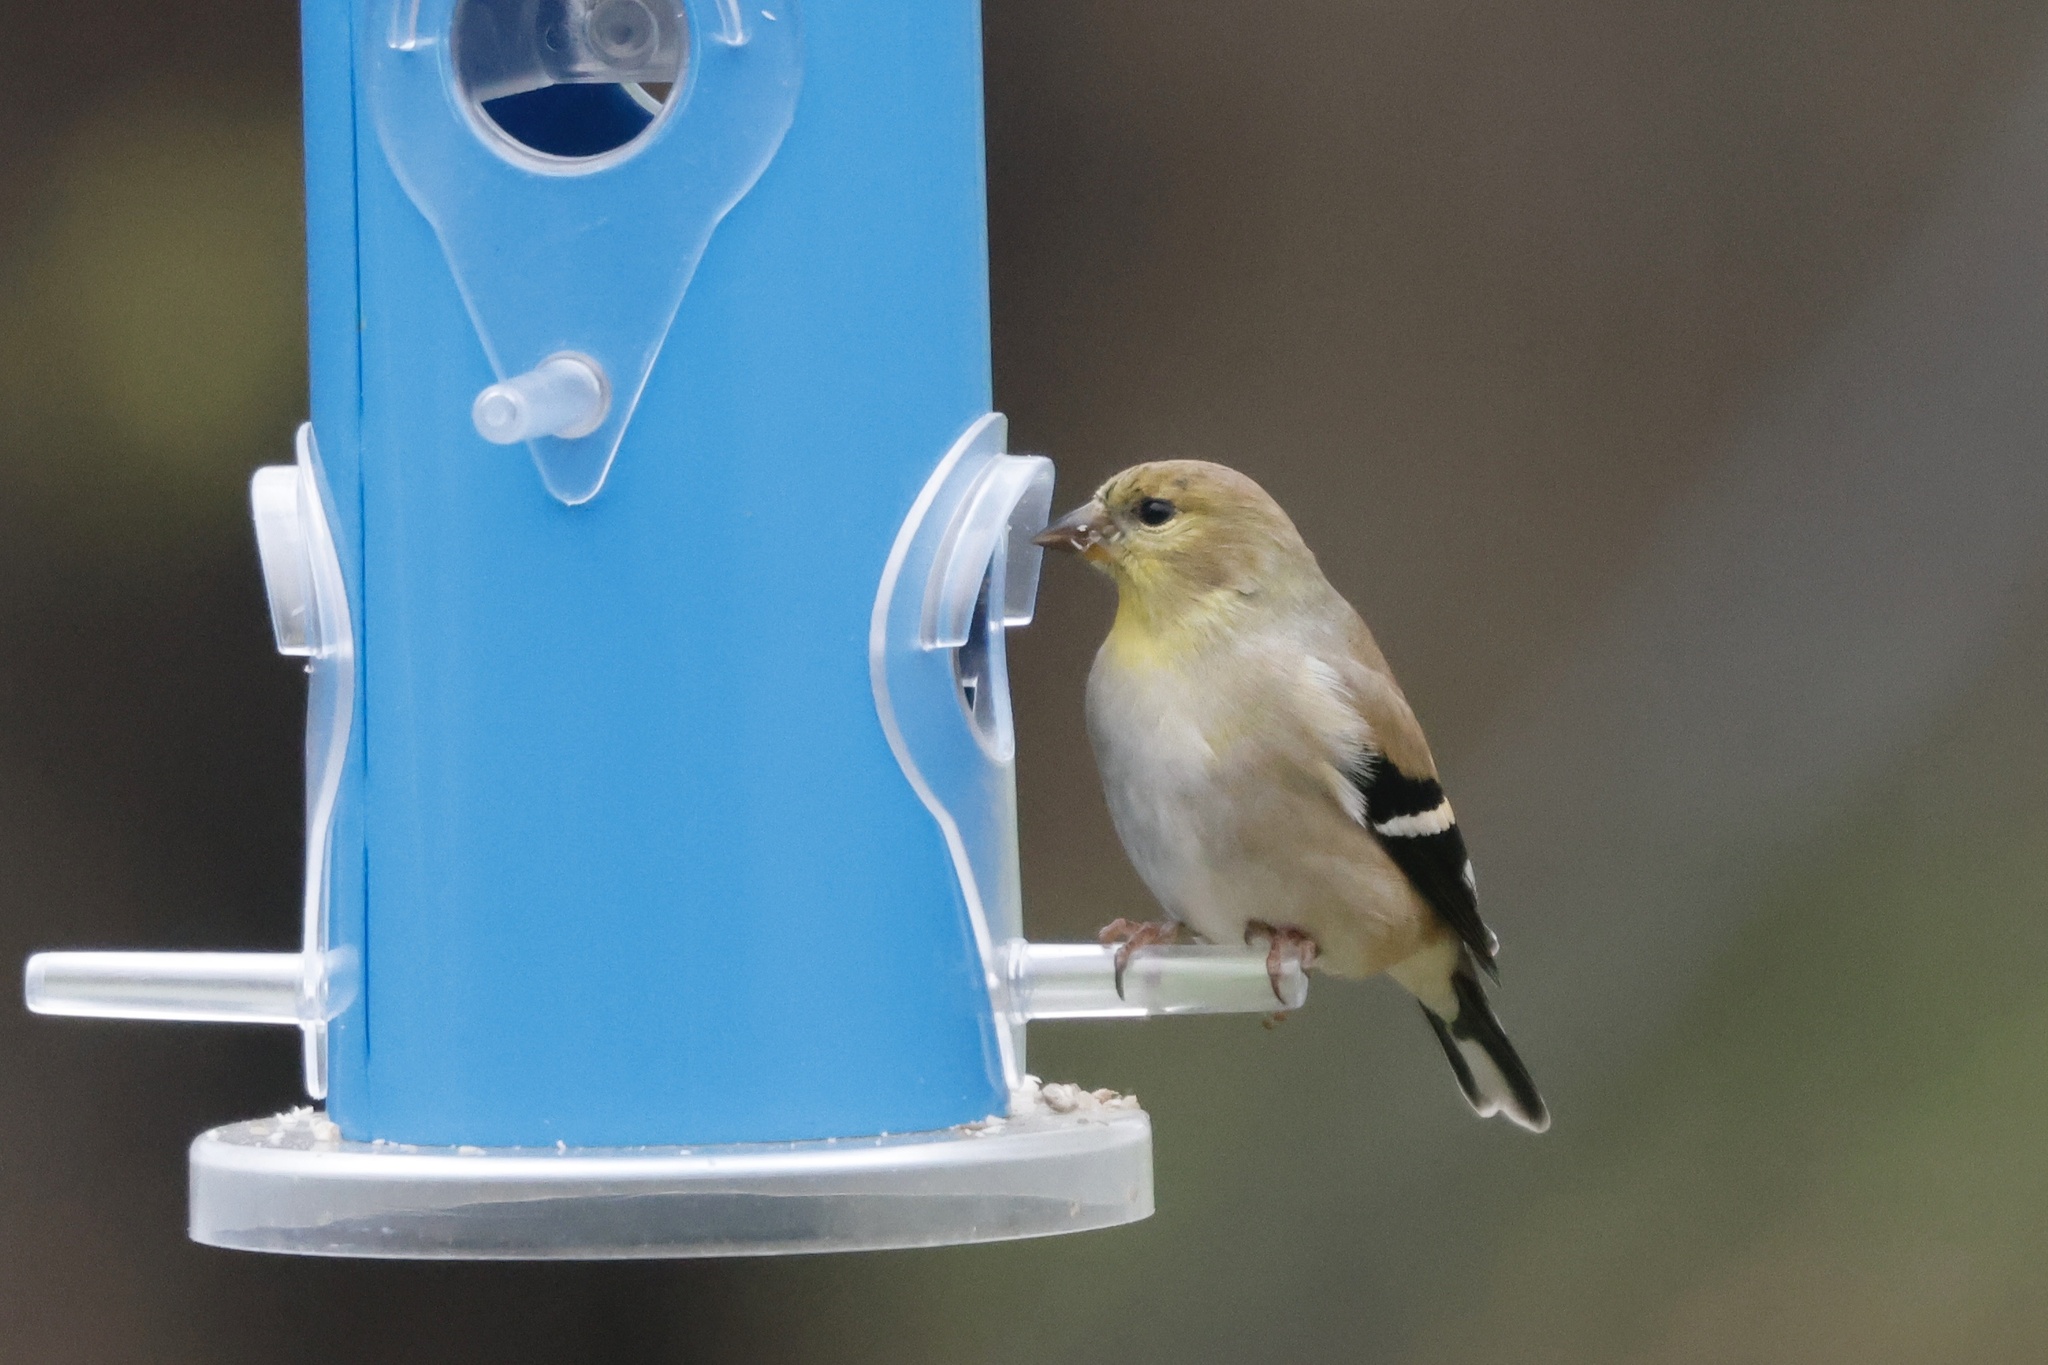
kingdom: Animalia
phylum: Chordata
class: Aves
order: Passeriformes
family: Fringillidae
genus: Spinus
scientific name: Spinus tristis
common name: American goldfinch
